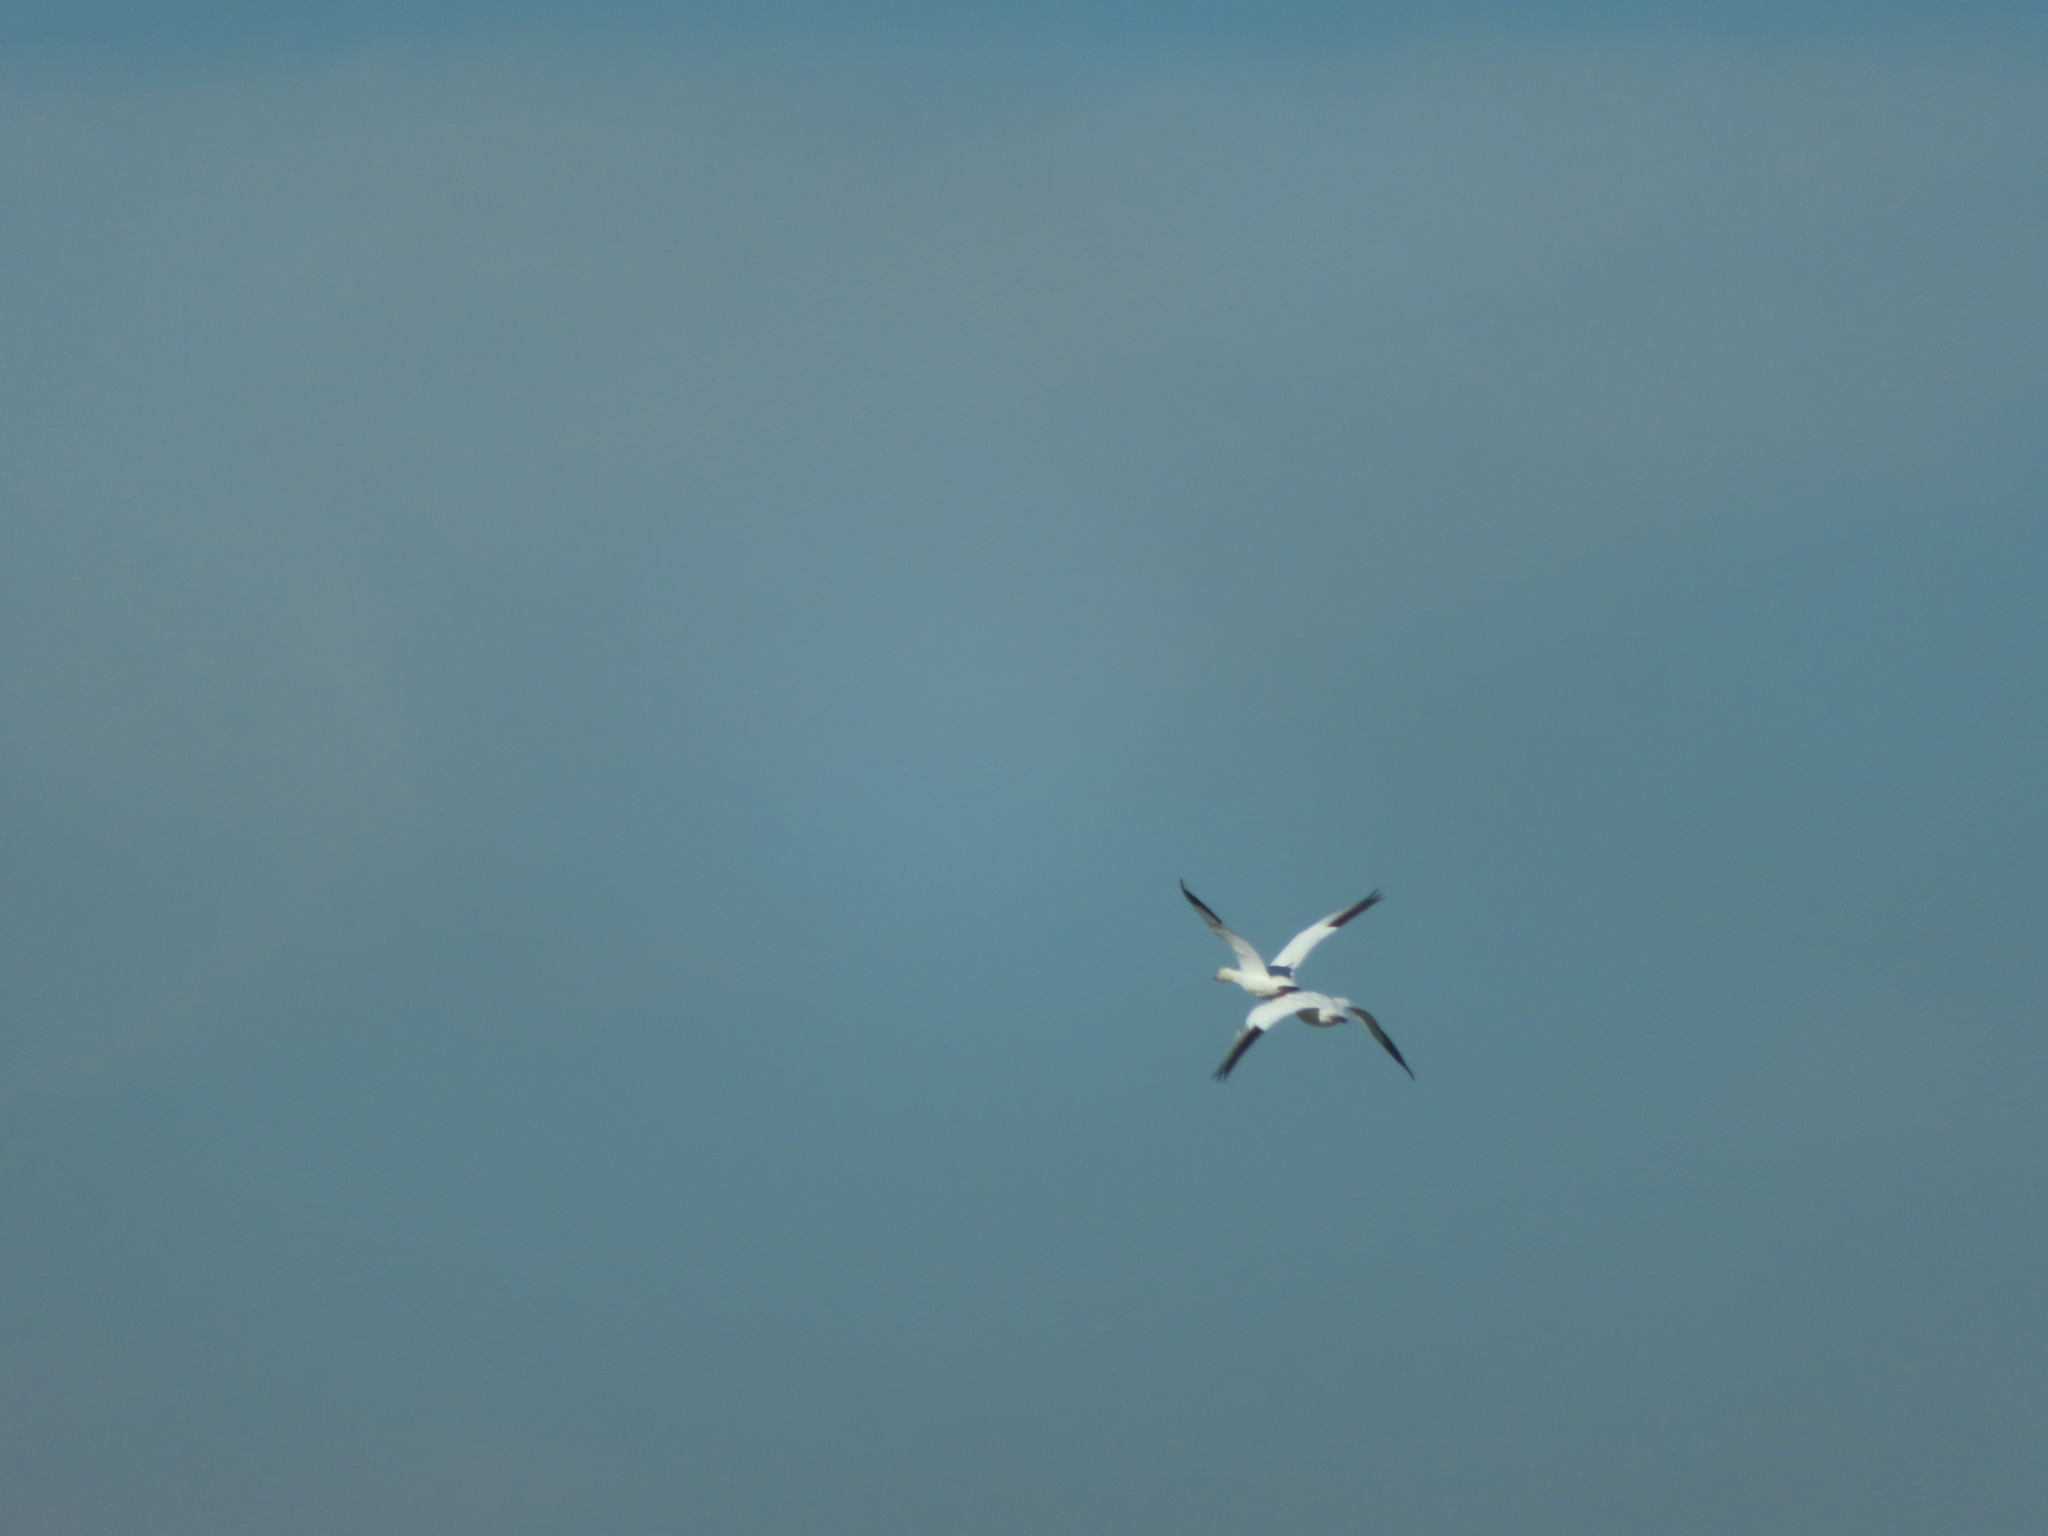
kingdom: Animalia
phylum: Chordata
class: Aves
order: Anseriformes
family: Anatidae
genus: Anser
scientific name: Anser caerulescens
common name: Snow goose
